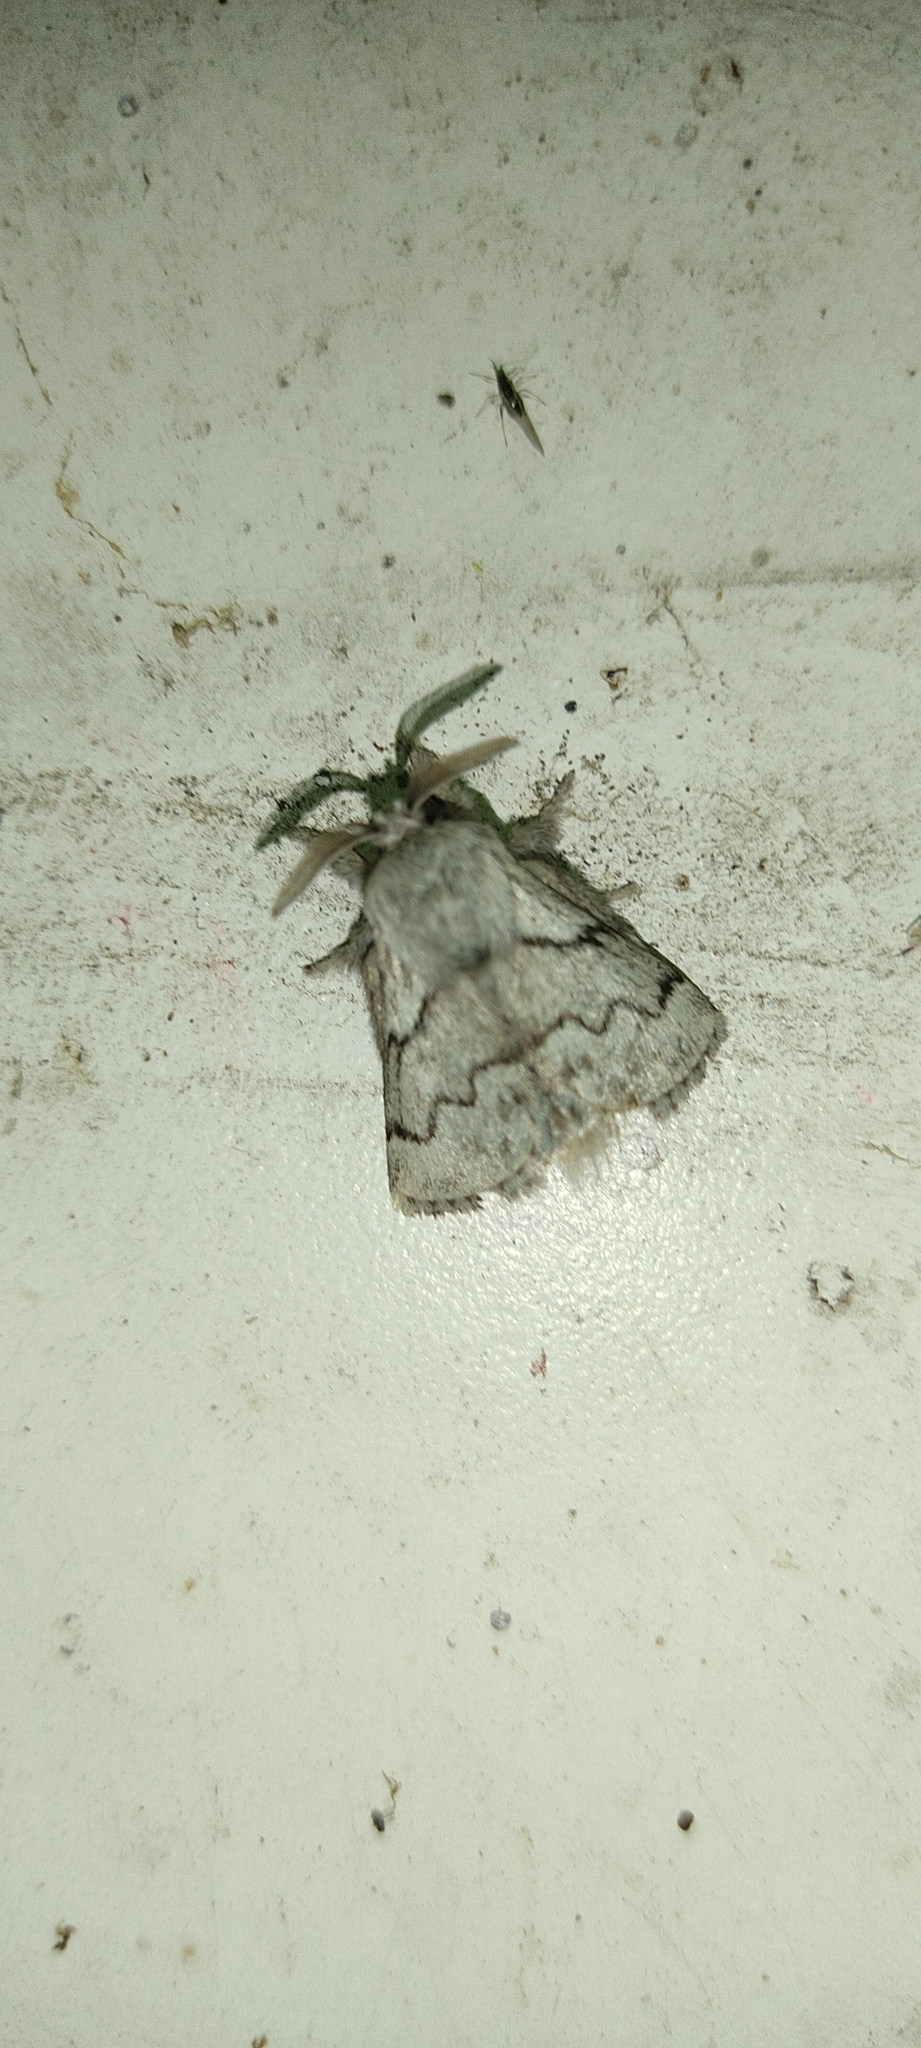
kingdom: Animalia
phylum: Arthropoda
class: Insecta
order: Lepidoptera
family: Lasiocampidae
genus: Trichiura
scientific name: Trichiura crataegi
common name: Pale eggar
